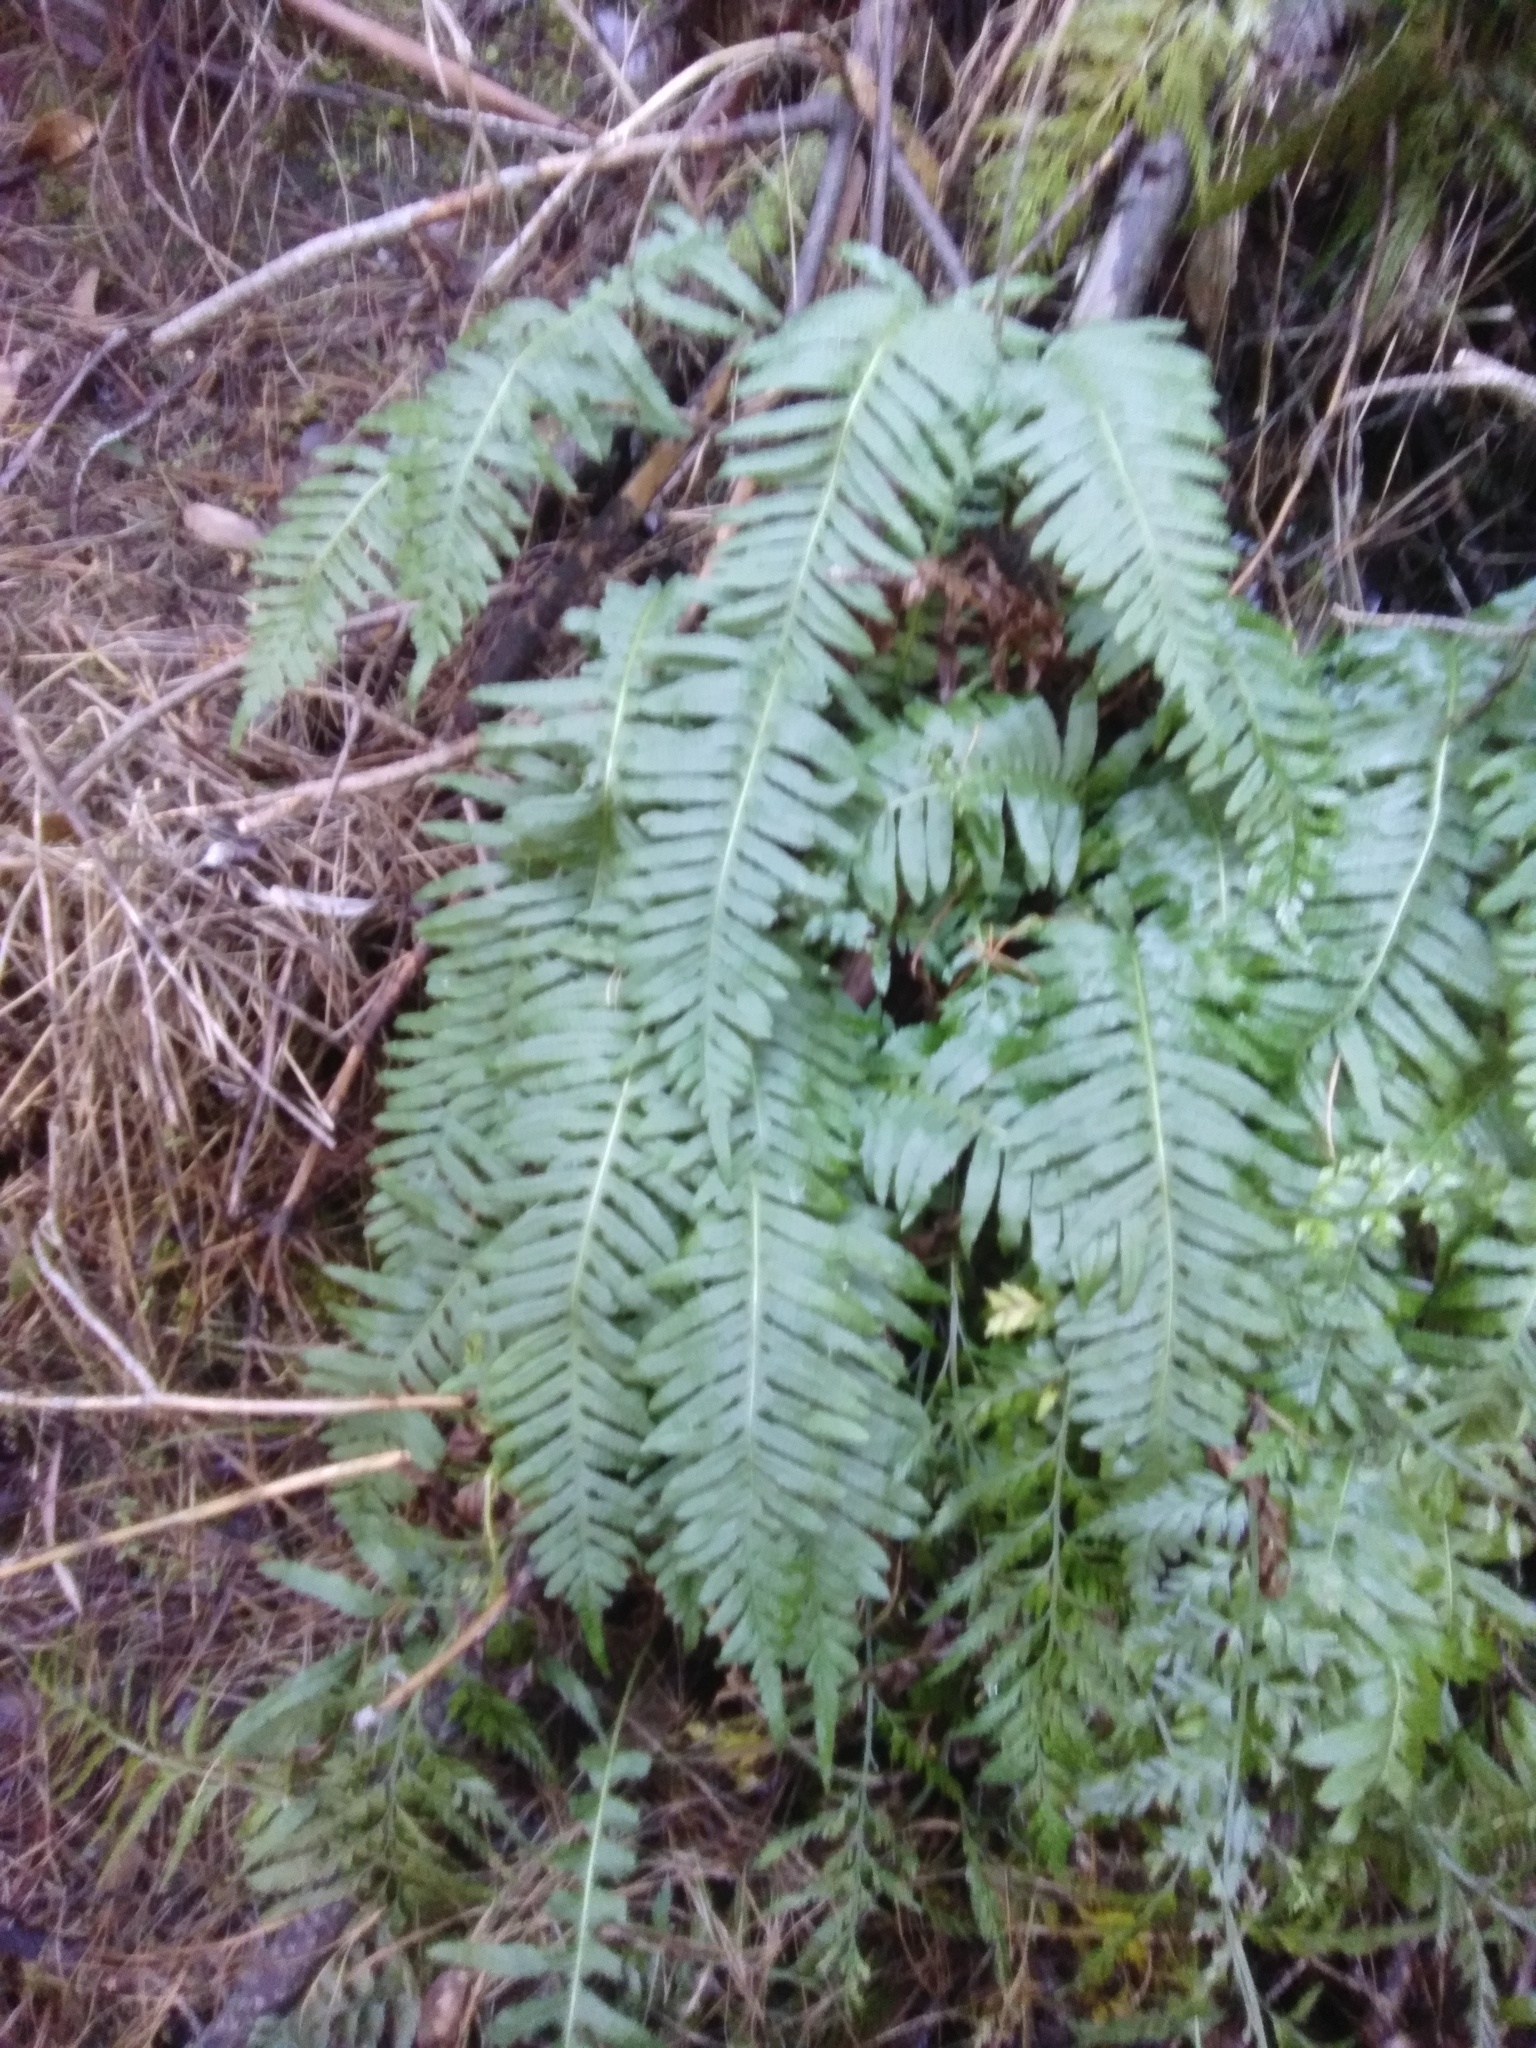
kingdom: Plantae
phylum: Tracheophyta
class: Polypodiopsida
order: Polypodiales
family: Polypodiaceae
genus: Polypodium
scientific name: Polypodium vulgare
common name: Common polypody
